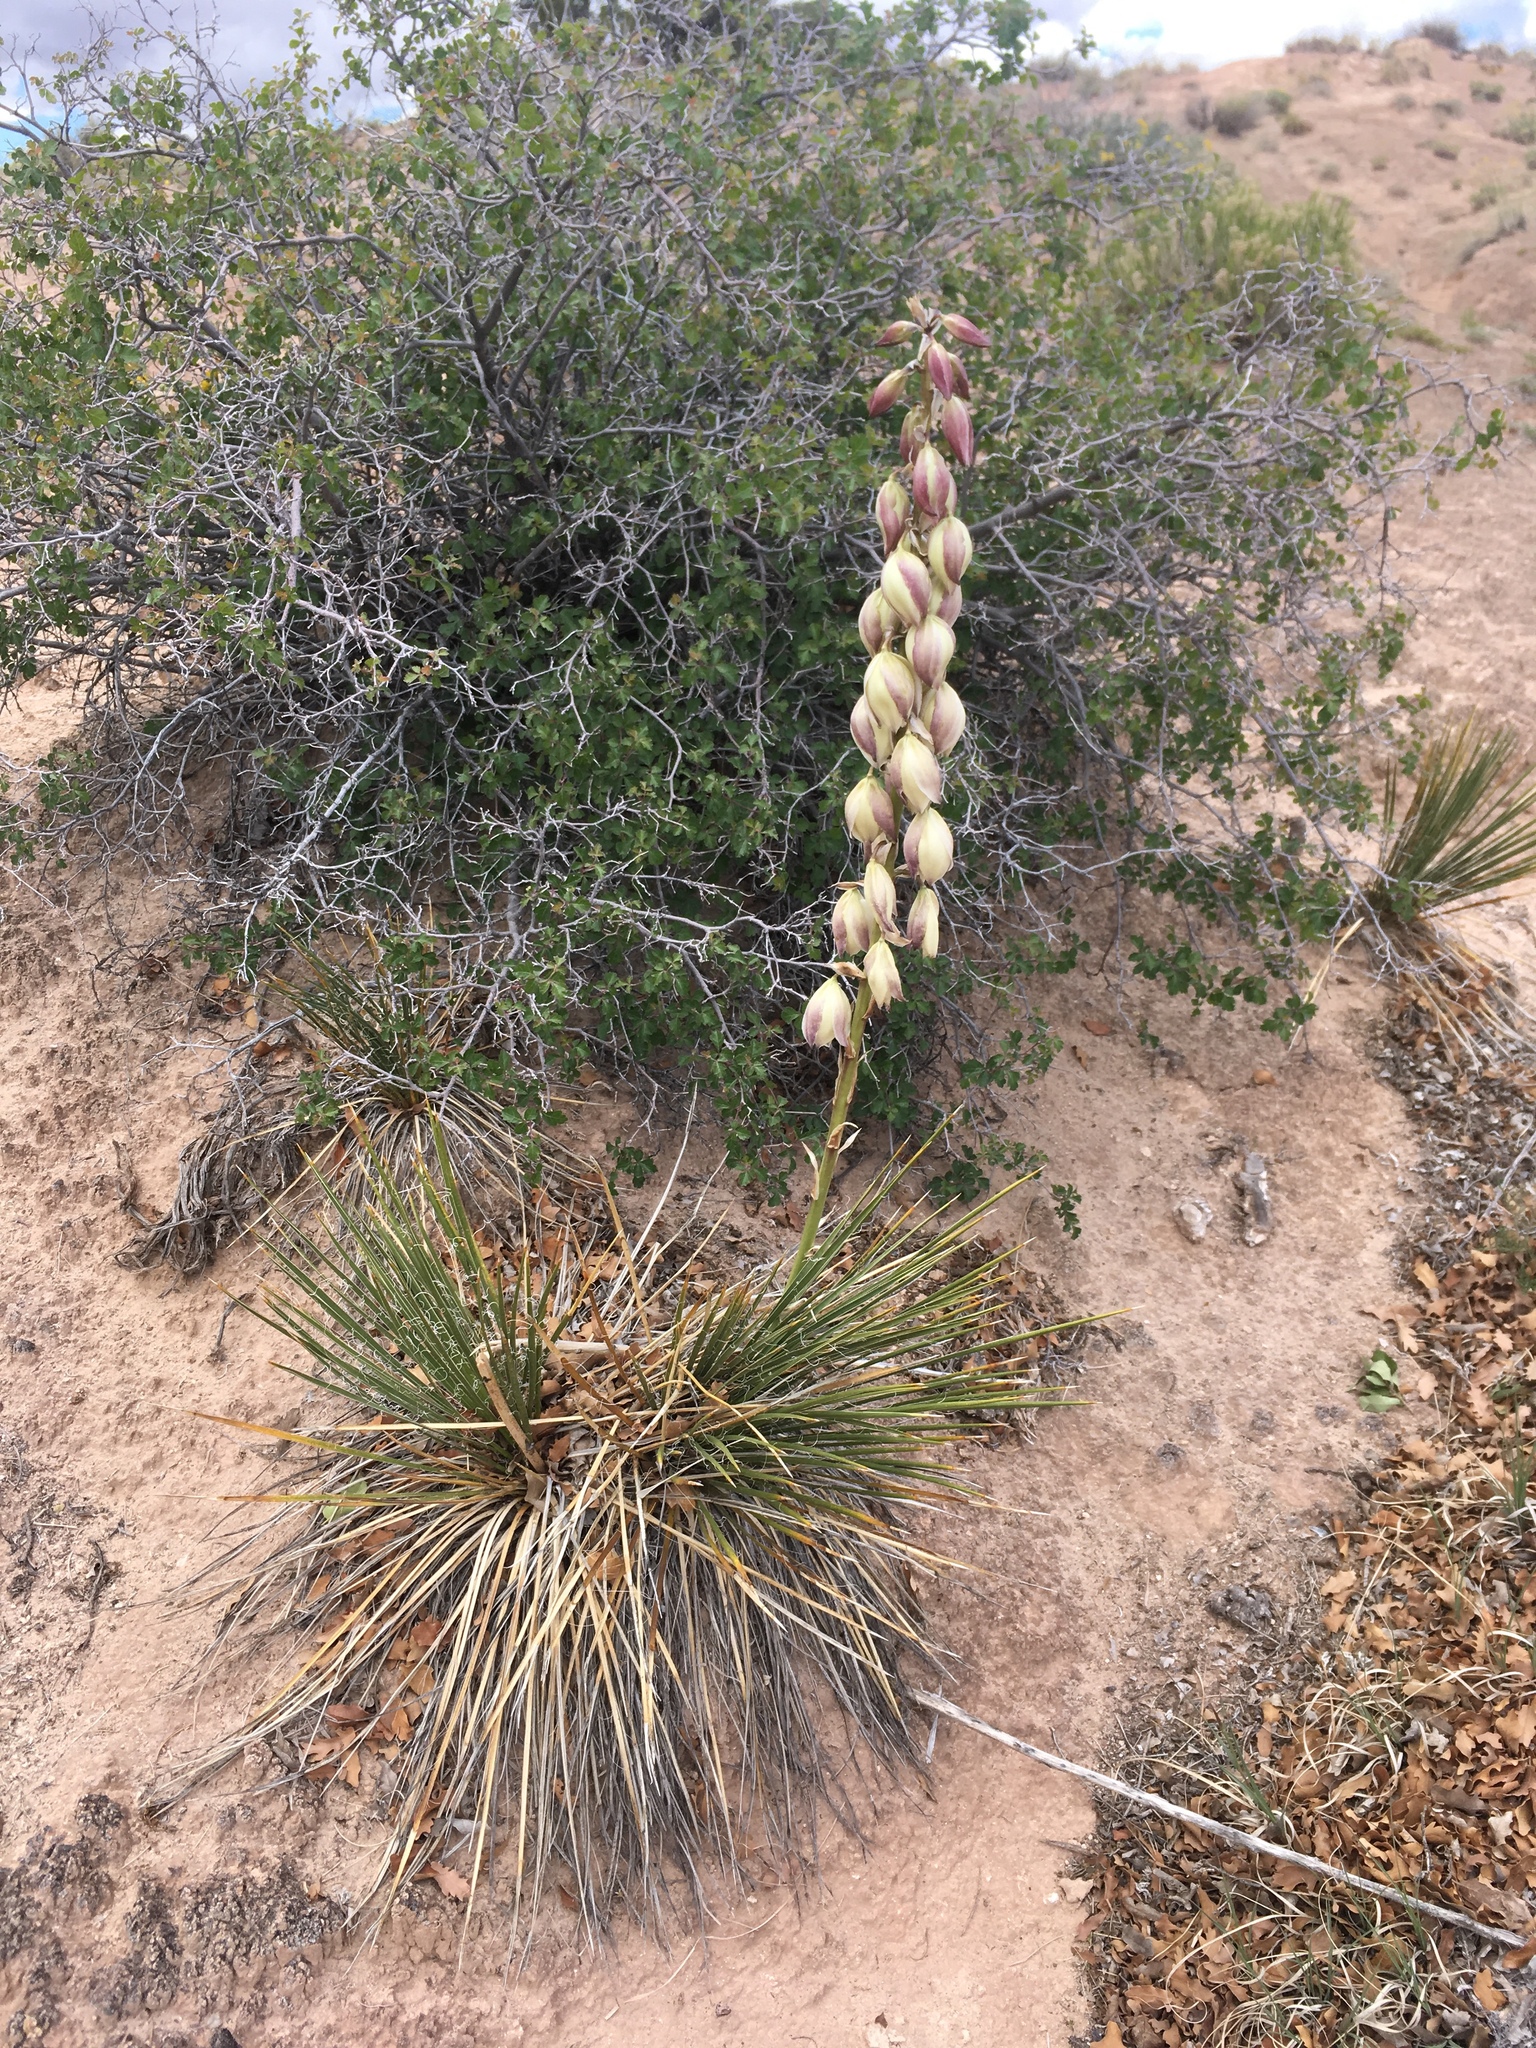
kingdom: Plantae
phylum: Tracheophyta
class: Liliopsida
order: Asparagales
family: Asparagaceae
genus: Yucca
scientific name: Yucca baileyi
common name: Alpine yucca
